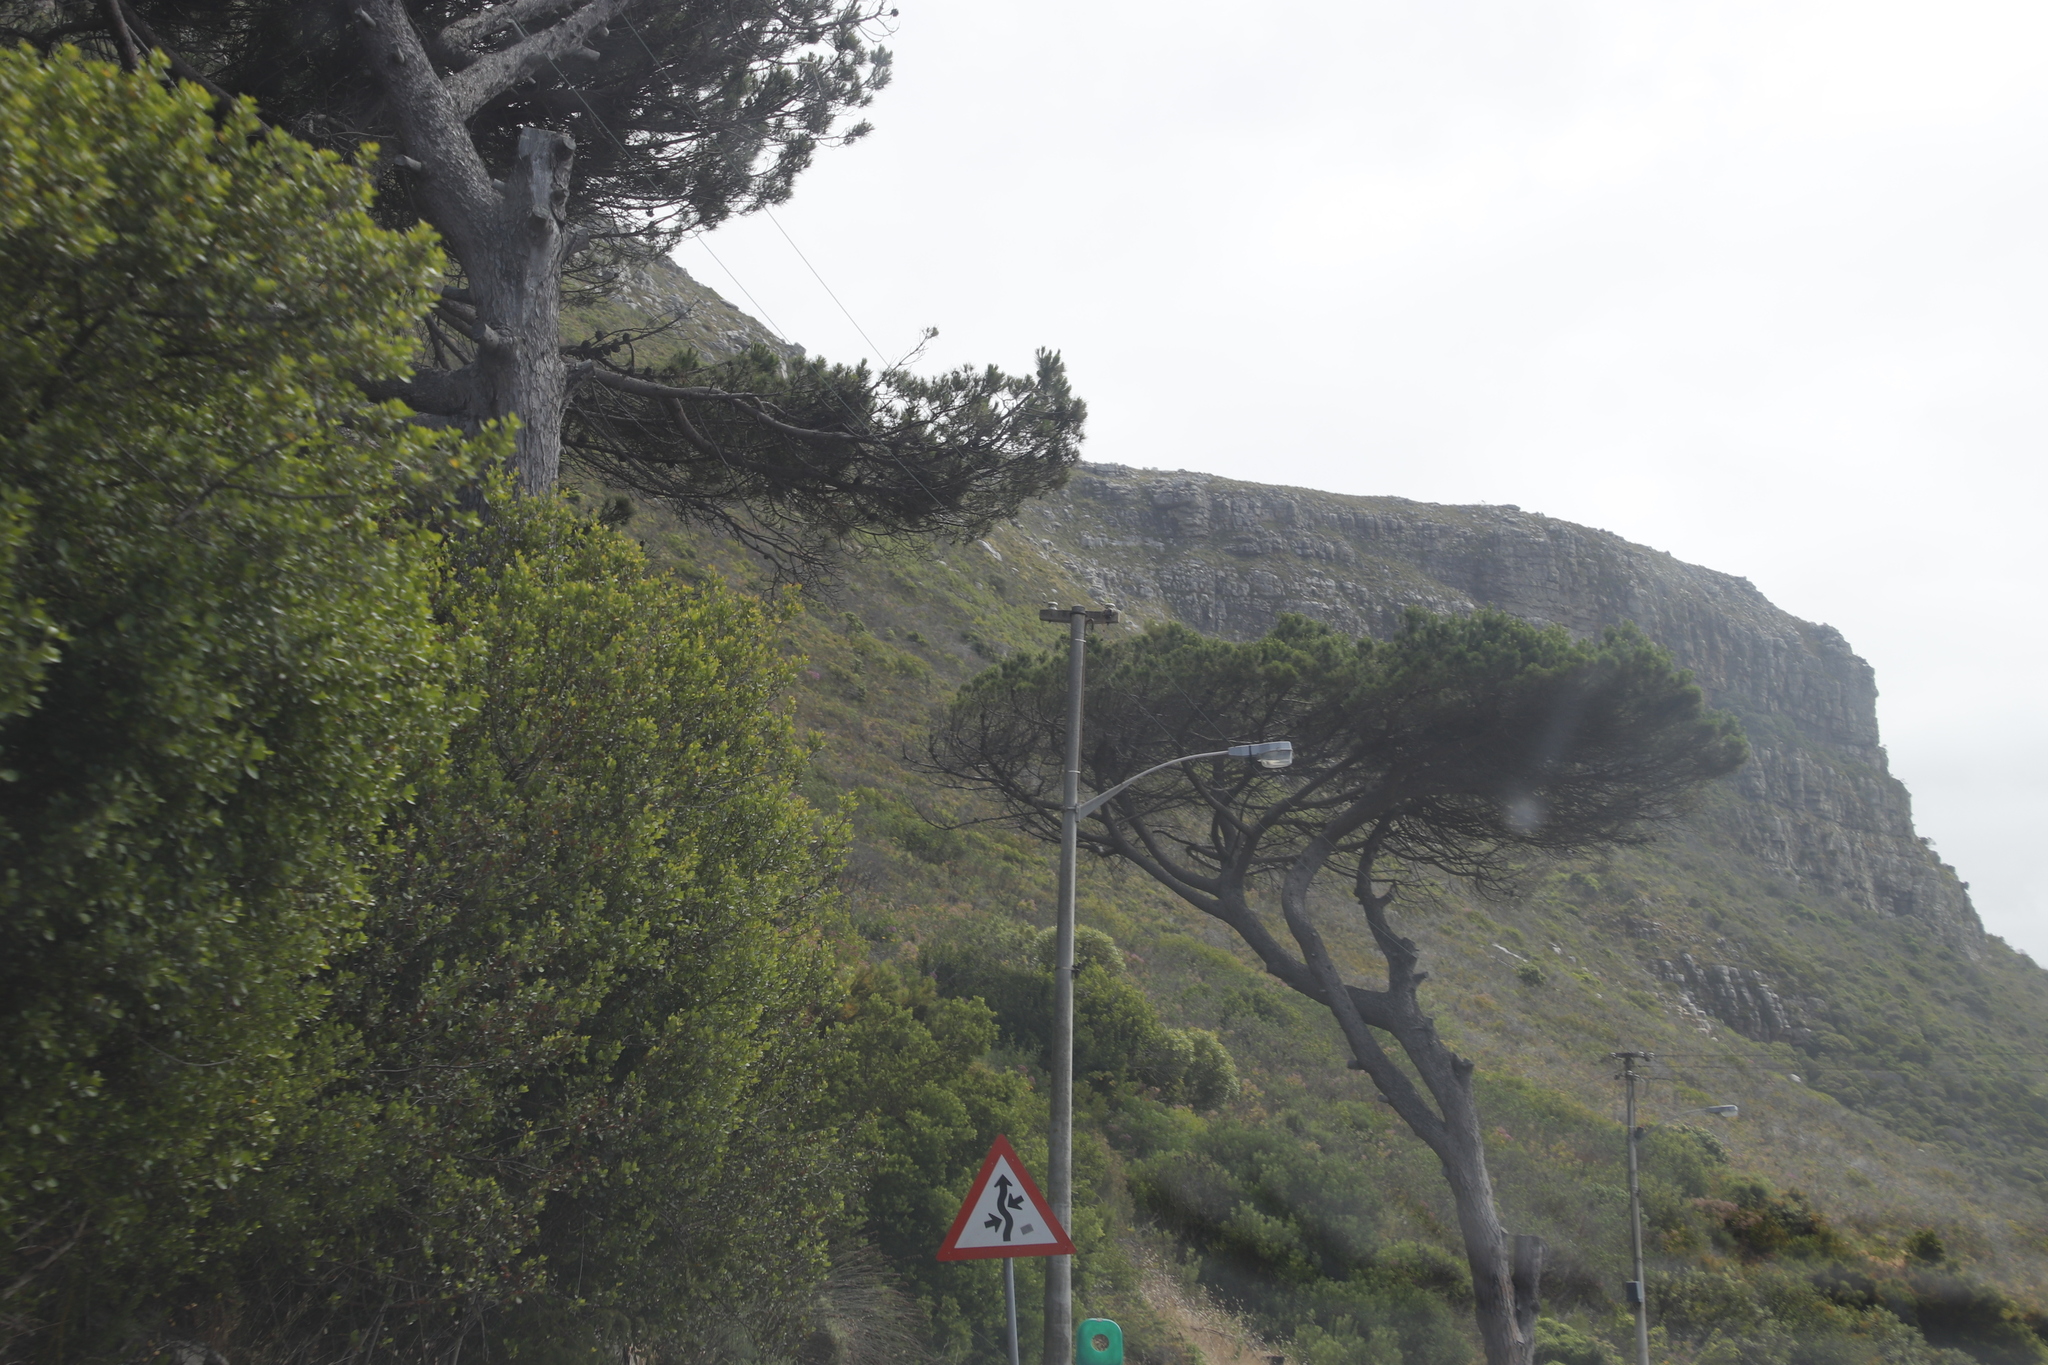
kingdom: Plantae
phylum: Tracheophyta
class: Pinopsida
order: Pinales
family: Pinaceae
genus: Pinus
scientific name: Pinus pinea
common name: Italian stone pine
